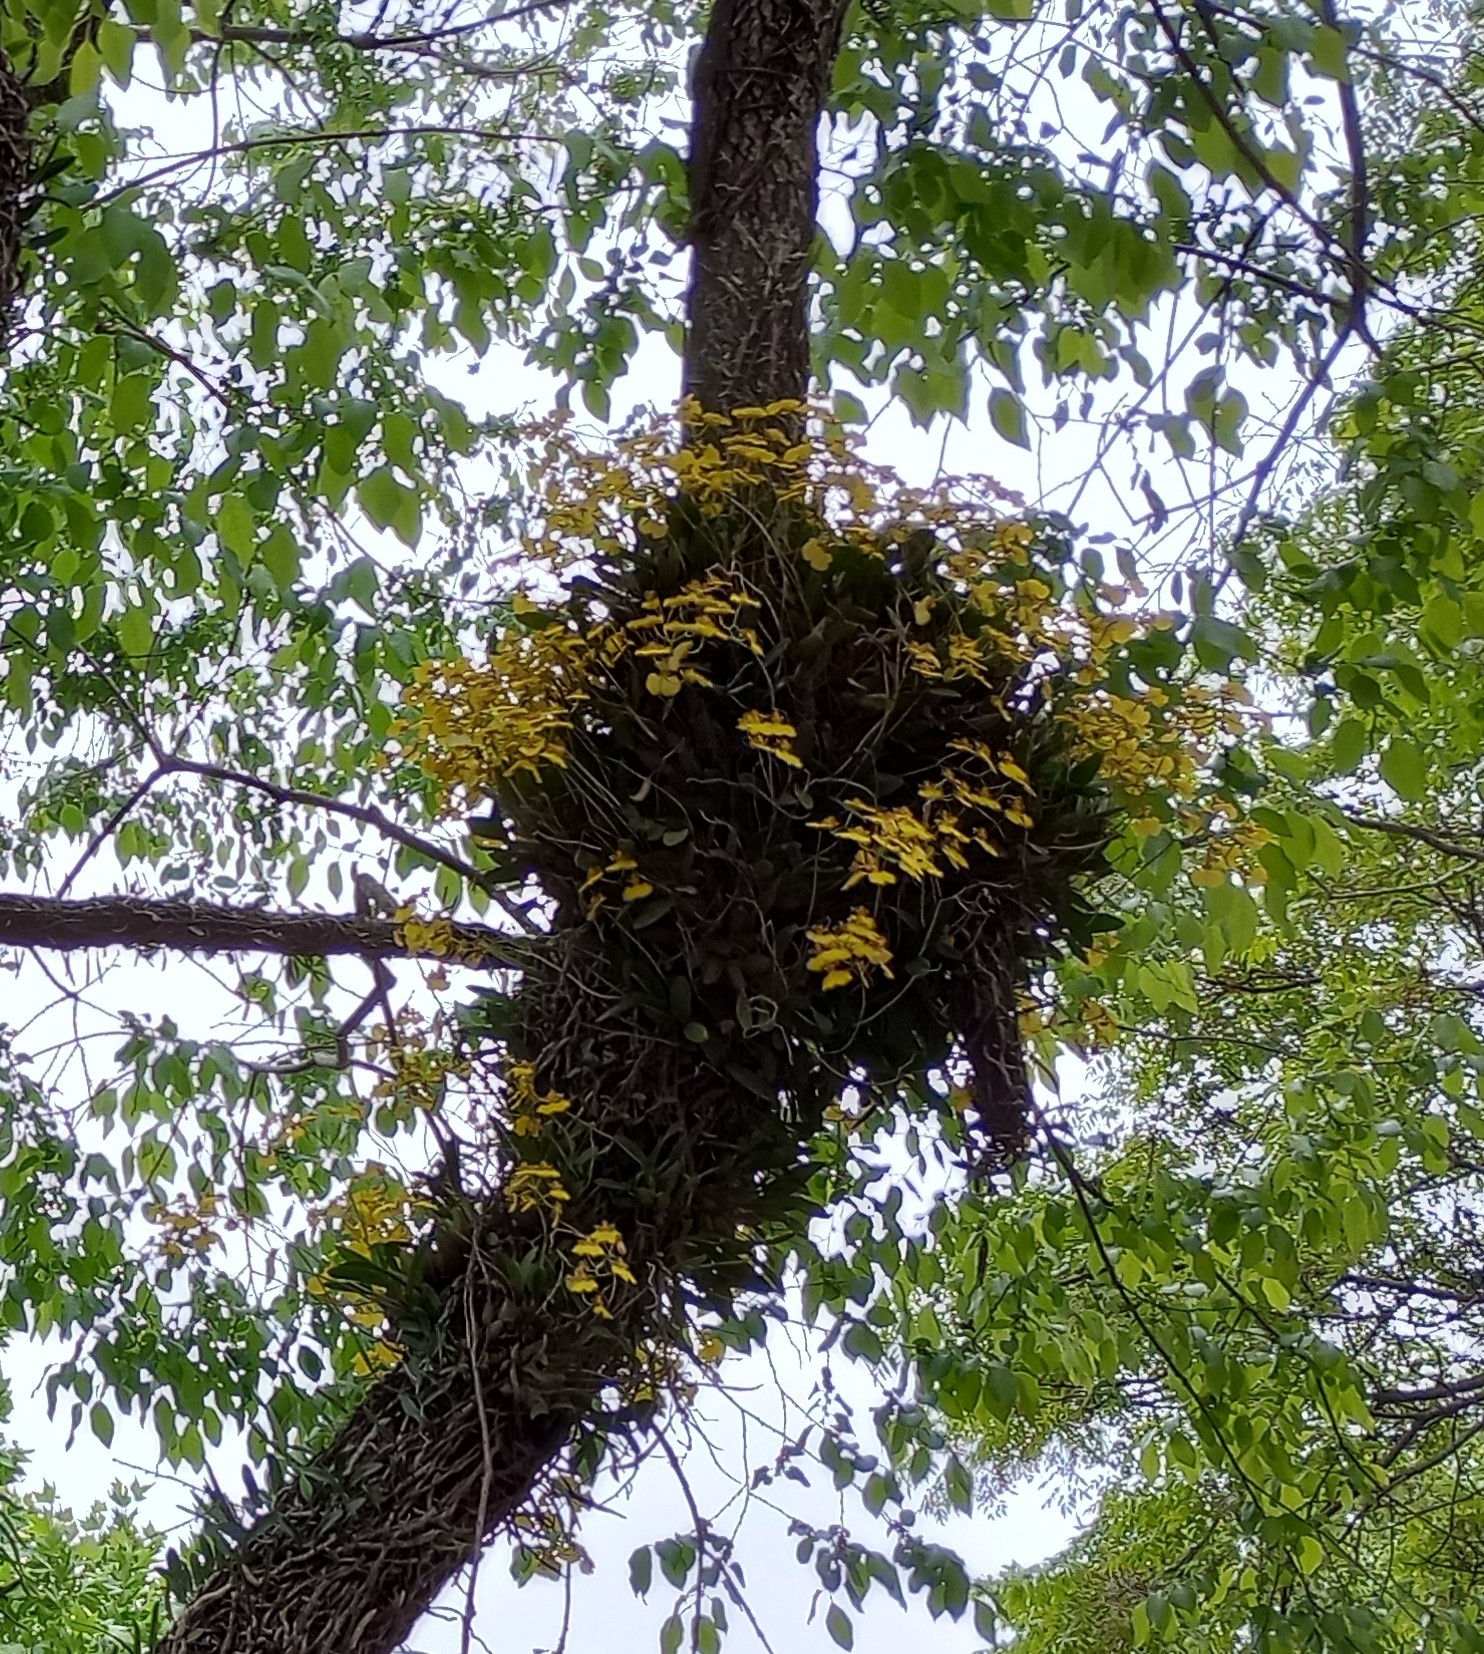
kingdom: Plantae
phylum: Tracheophyta
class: Liliopsida
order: Asparagales
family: Orchidaceae
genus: Gomesa
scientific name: Gomesa bifolia
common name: Dancing ladies
